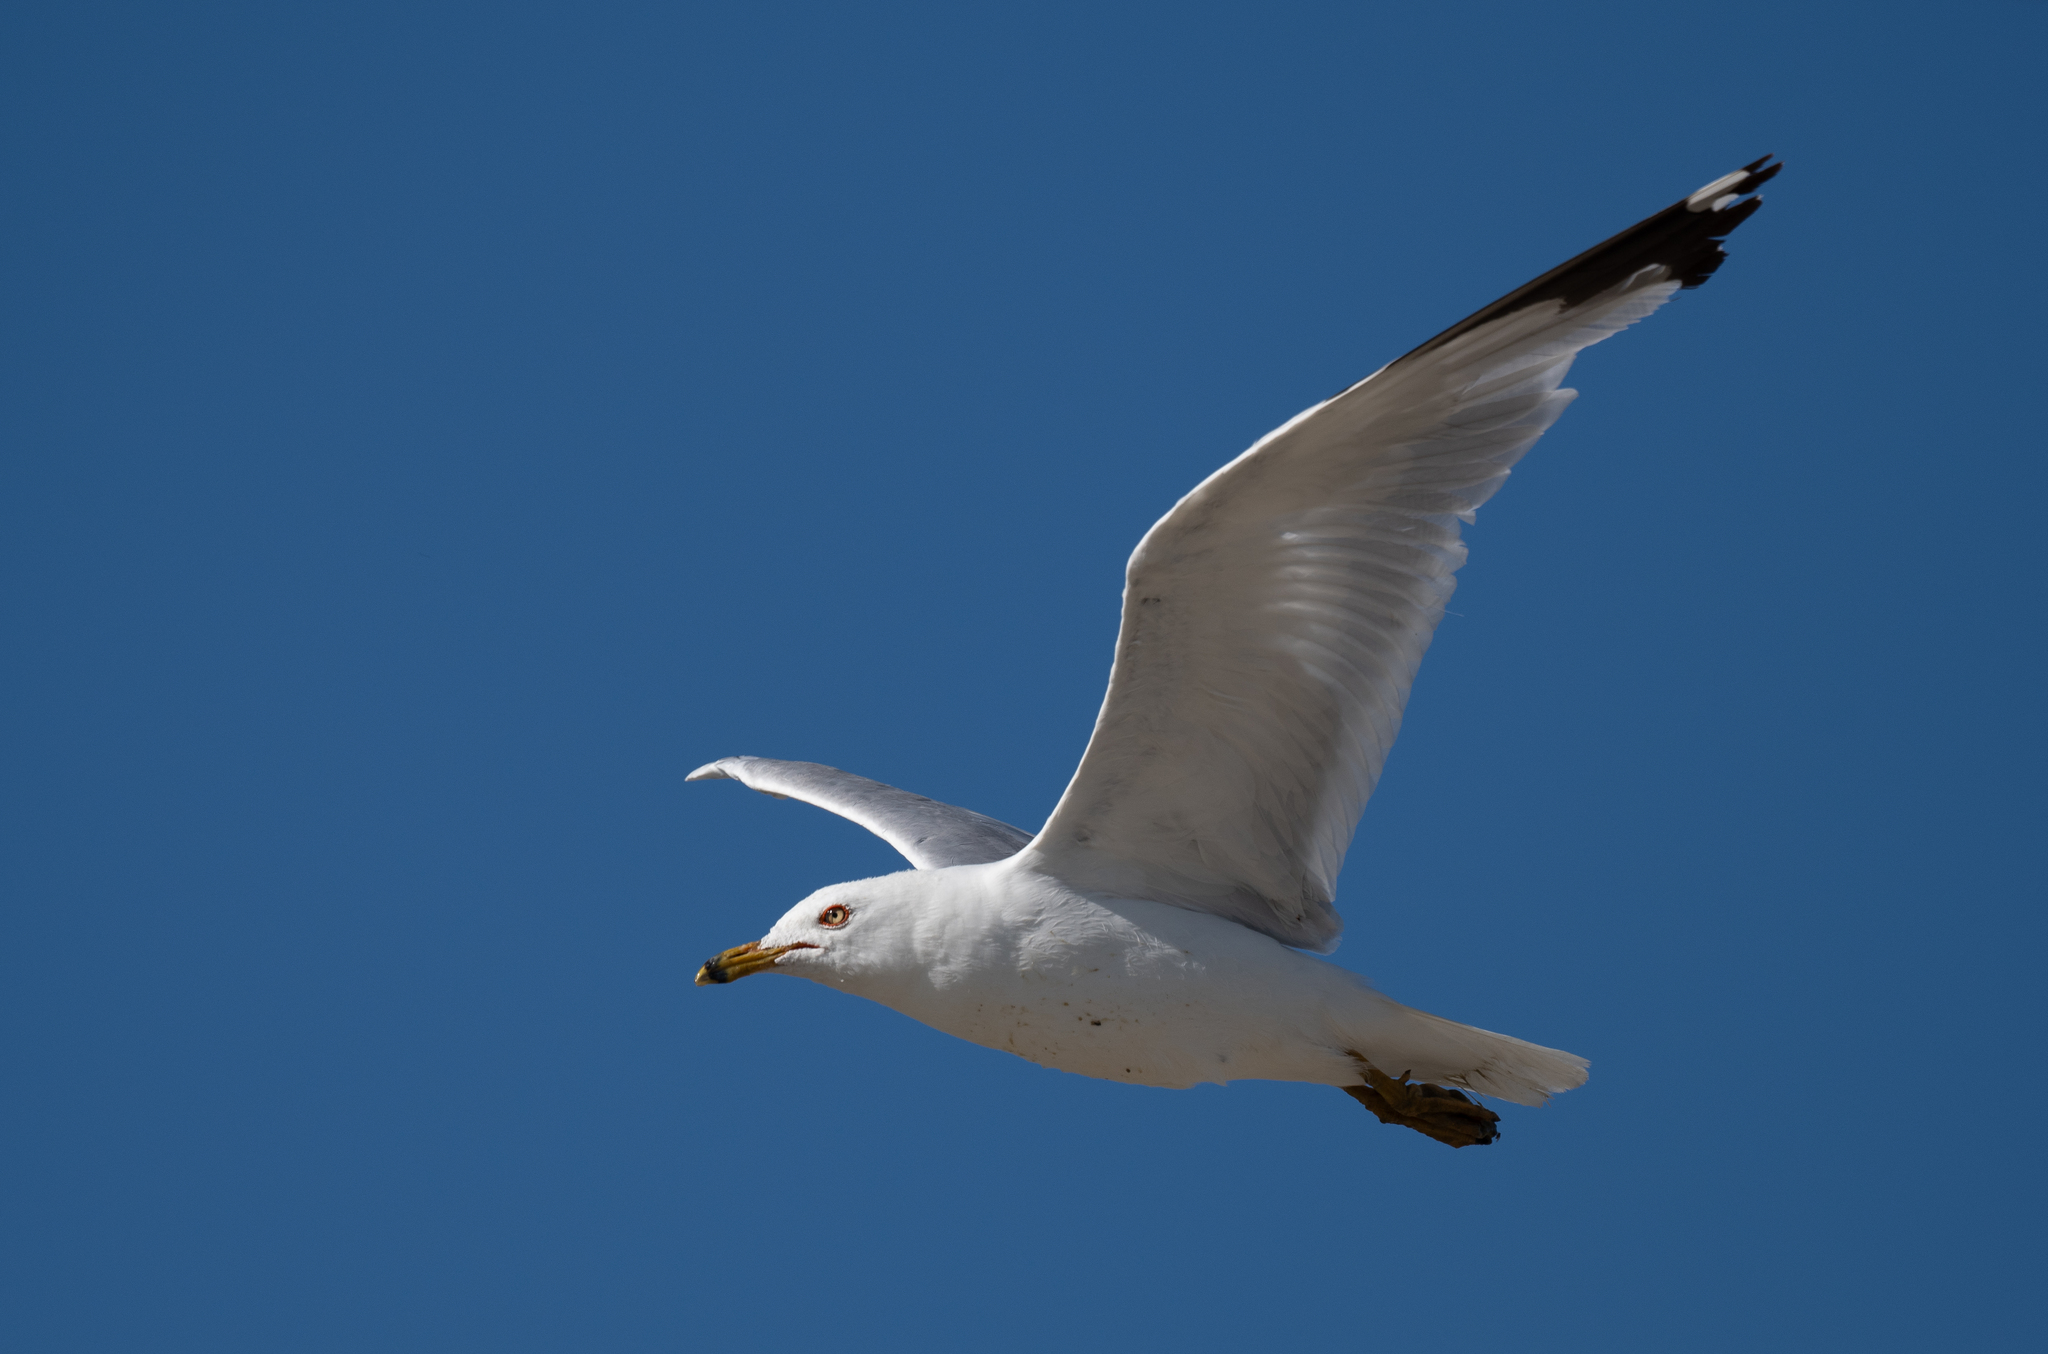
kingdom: Animalia
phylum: Chordata
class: Aves
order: Charadriiformes
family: Laridae
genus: Larus
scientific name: Larus delawarensis
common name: Ring-billed gull
